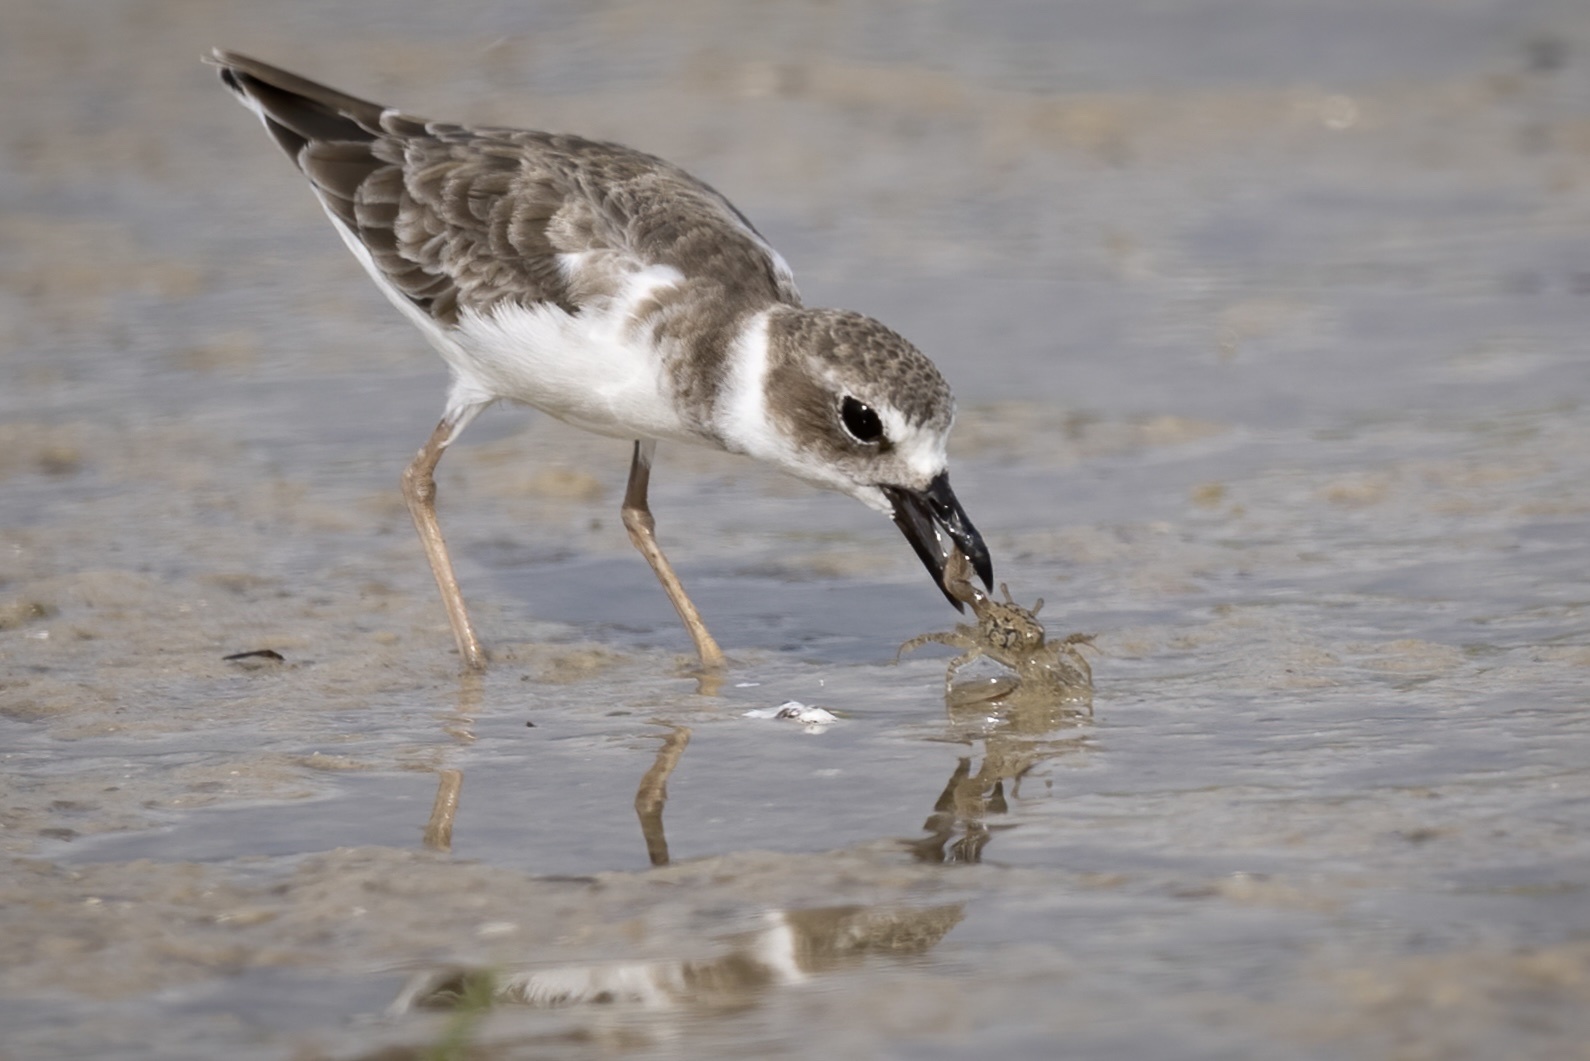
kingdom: Animalia
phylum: Chordata
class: Aves
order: Charadriiformes
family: Charadriidae
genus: Anarhynchus
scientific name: Anarhynchus
